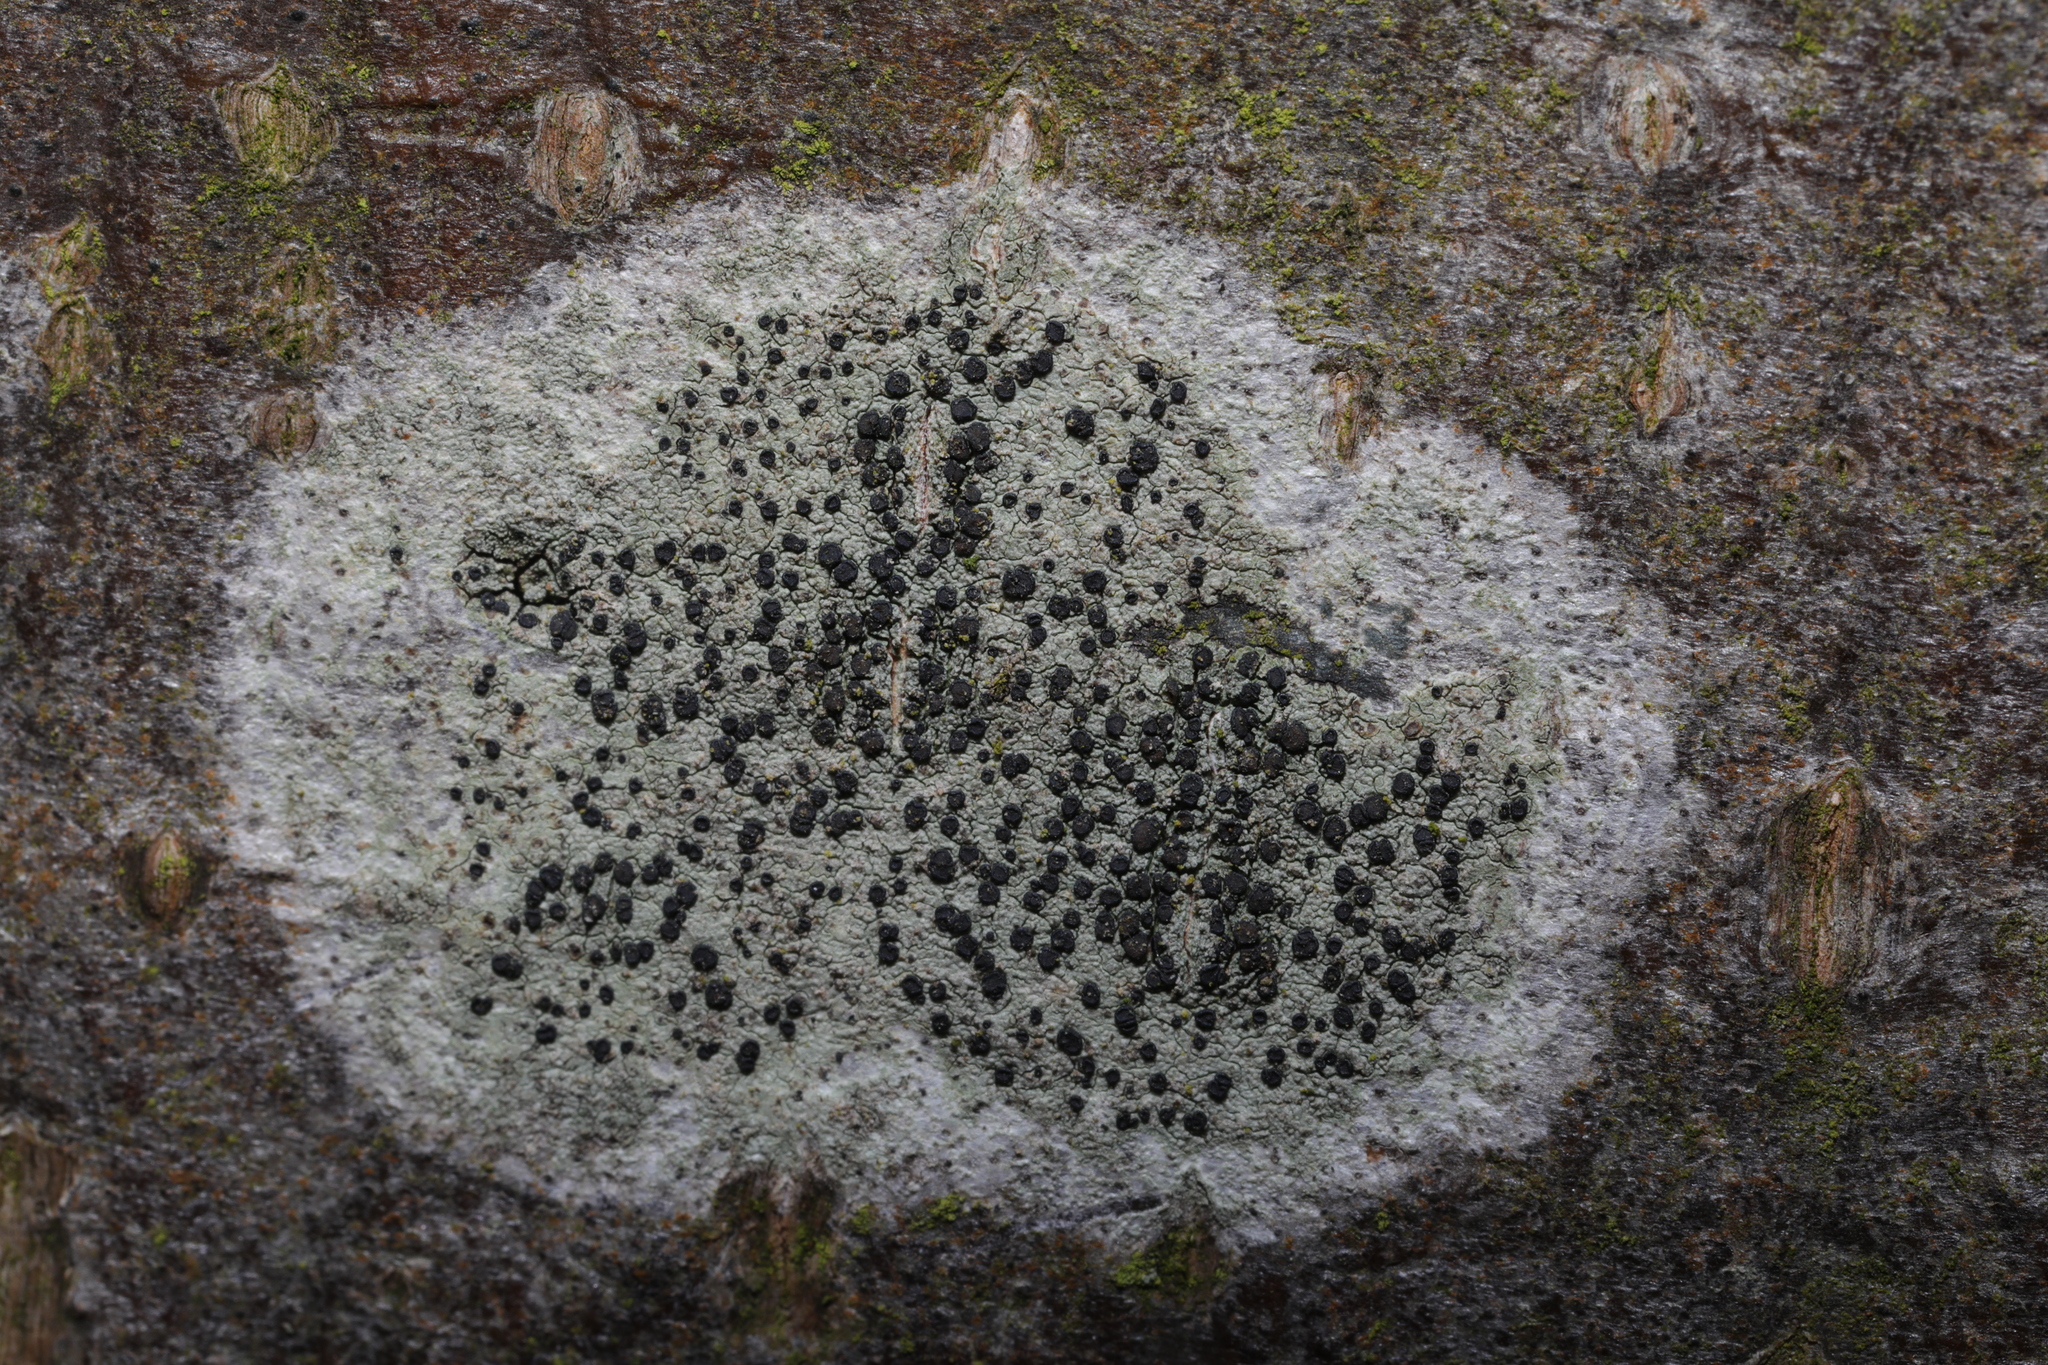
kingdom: Fungi
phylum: Ascomycota
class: Lecanoromycetes
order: Lecanorales
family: Lecanoraceae
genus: Lecidella
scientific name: Lecidella elaeochroma
